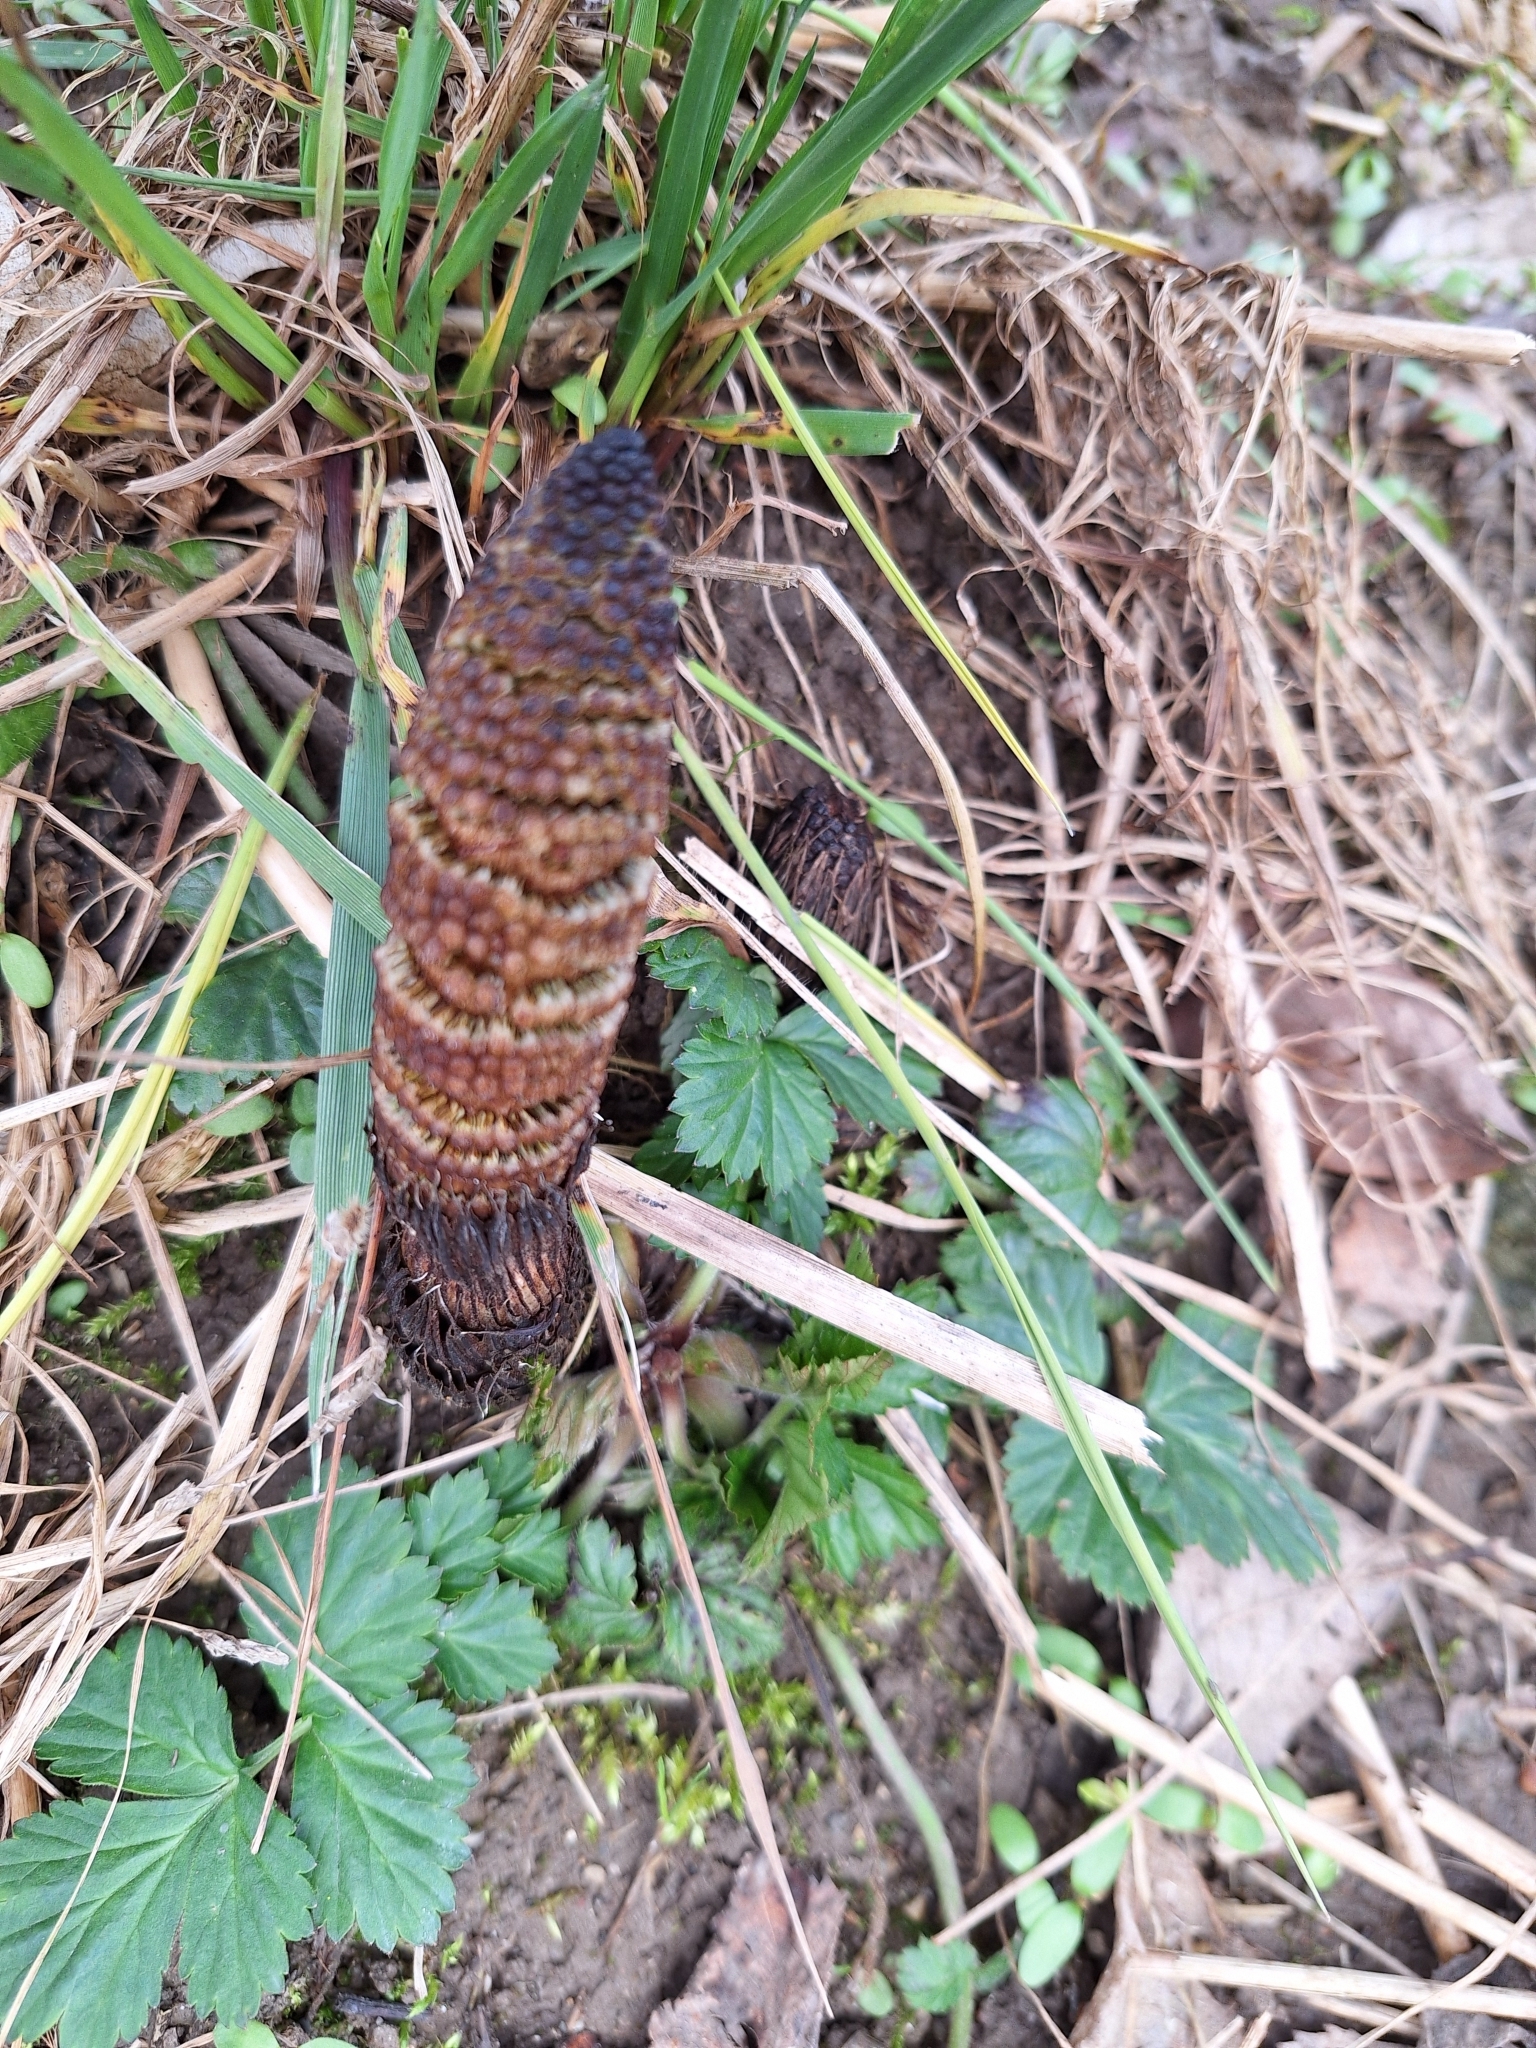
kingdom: Plantae
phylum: Tracheophyta
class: Polypodiopsida
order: Equisetales
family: Equisetaceae
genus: Equisetum
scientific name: Equisetum telmateia
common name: Great horsetail
